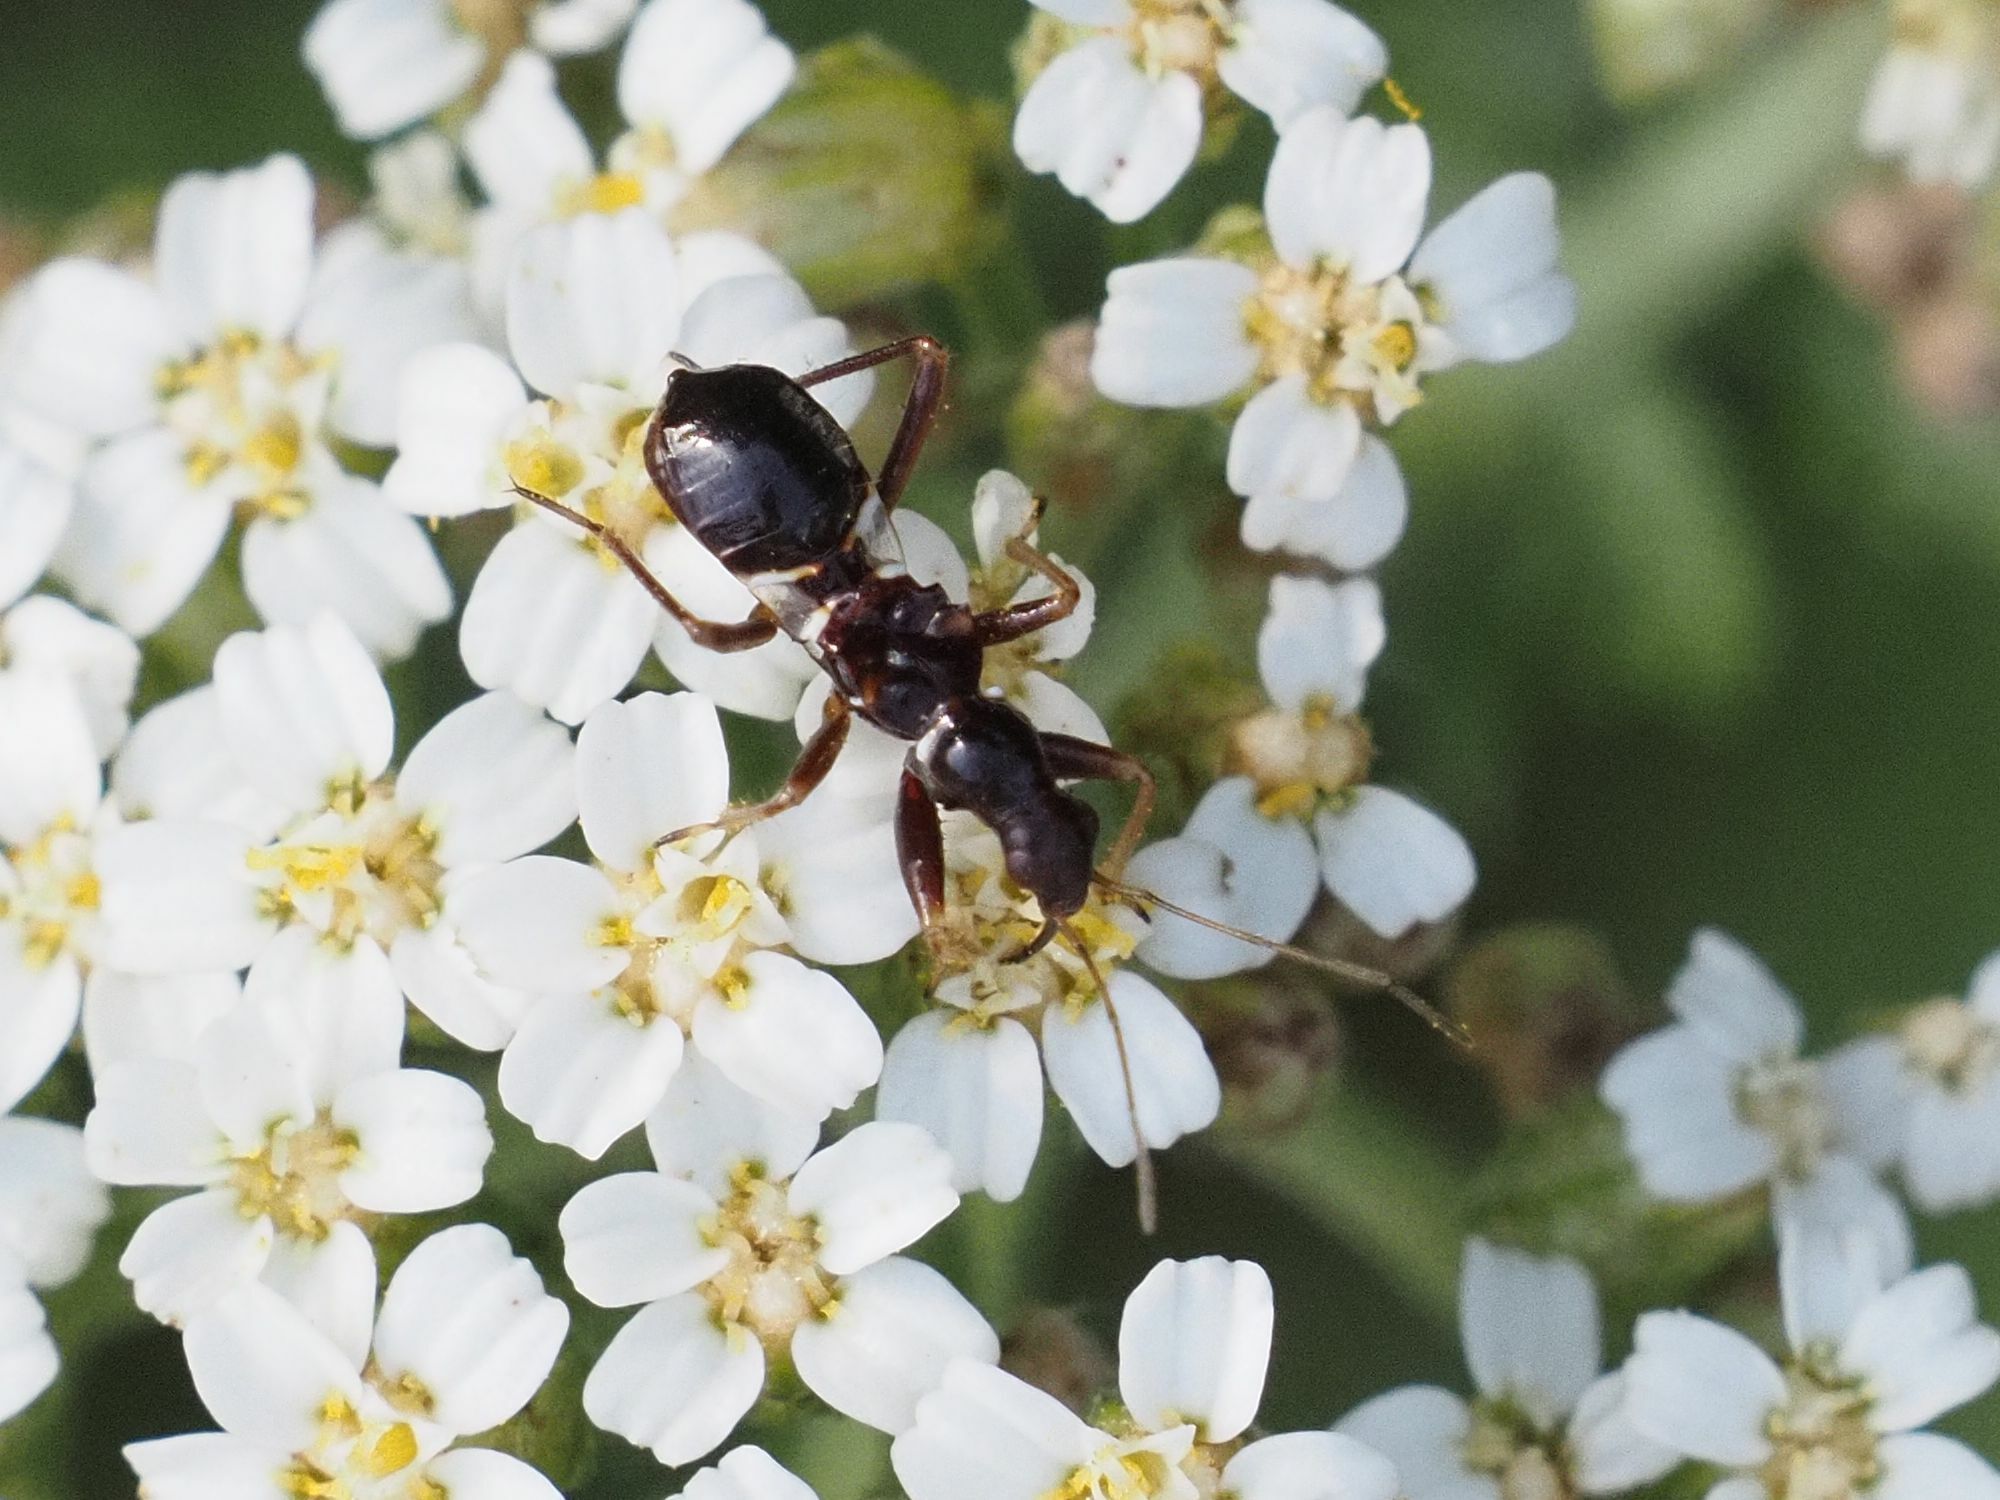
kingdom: Animalia
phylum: Arthropoda
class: Insecta
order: Hemiptera
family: Nabidae
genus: Himacerus
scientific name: Himacerus mirmicoides
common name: Ant damsel bug
